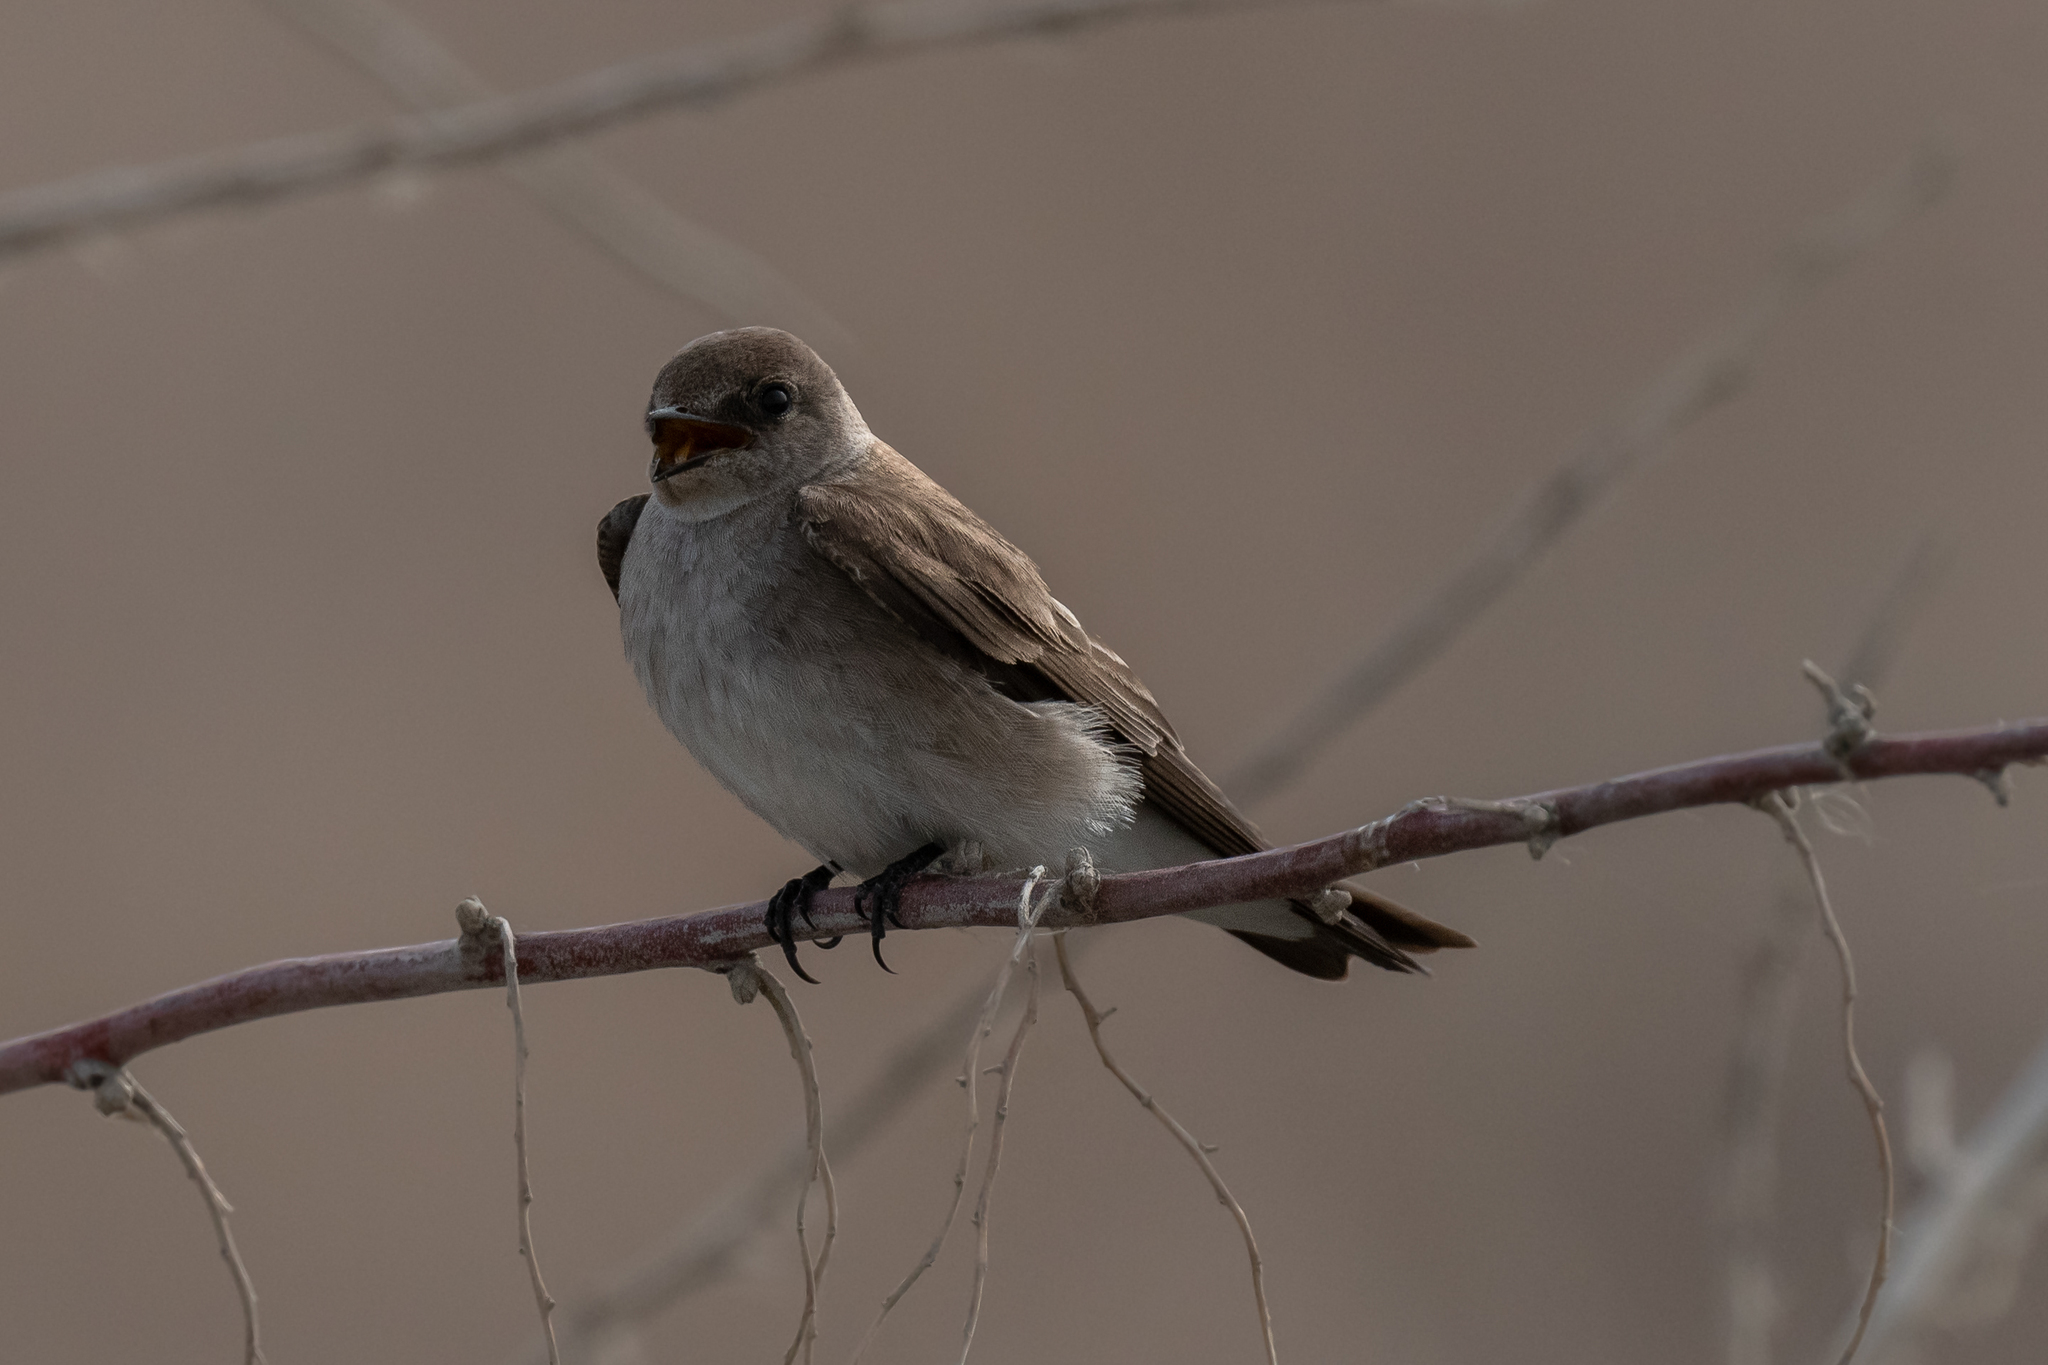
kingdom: Animalia
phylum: Chordata
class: Aves
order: Passeriformes
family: Hirundinidae
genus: Stelgidopteryx
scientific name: Stelgidopteryx serripennis
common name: Northern rough-winged swallow
